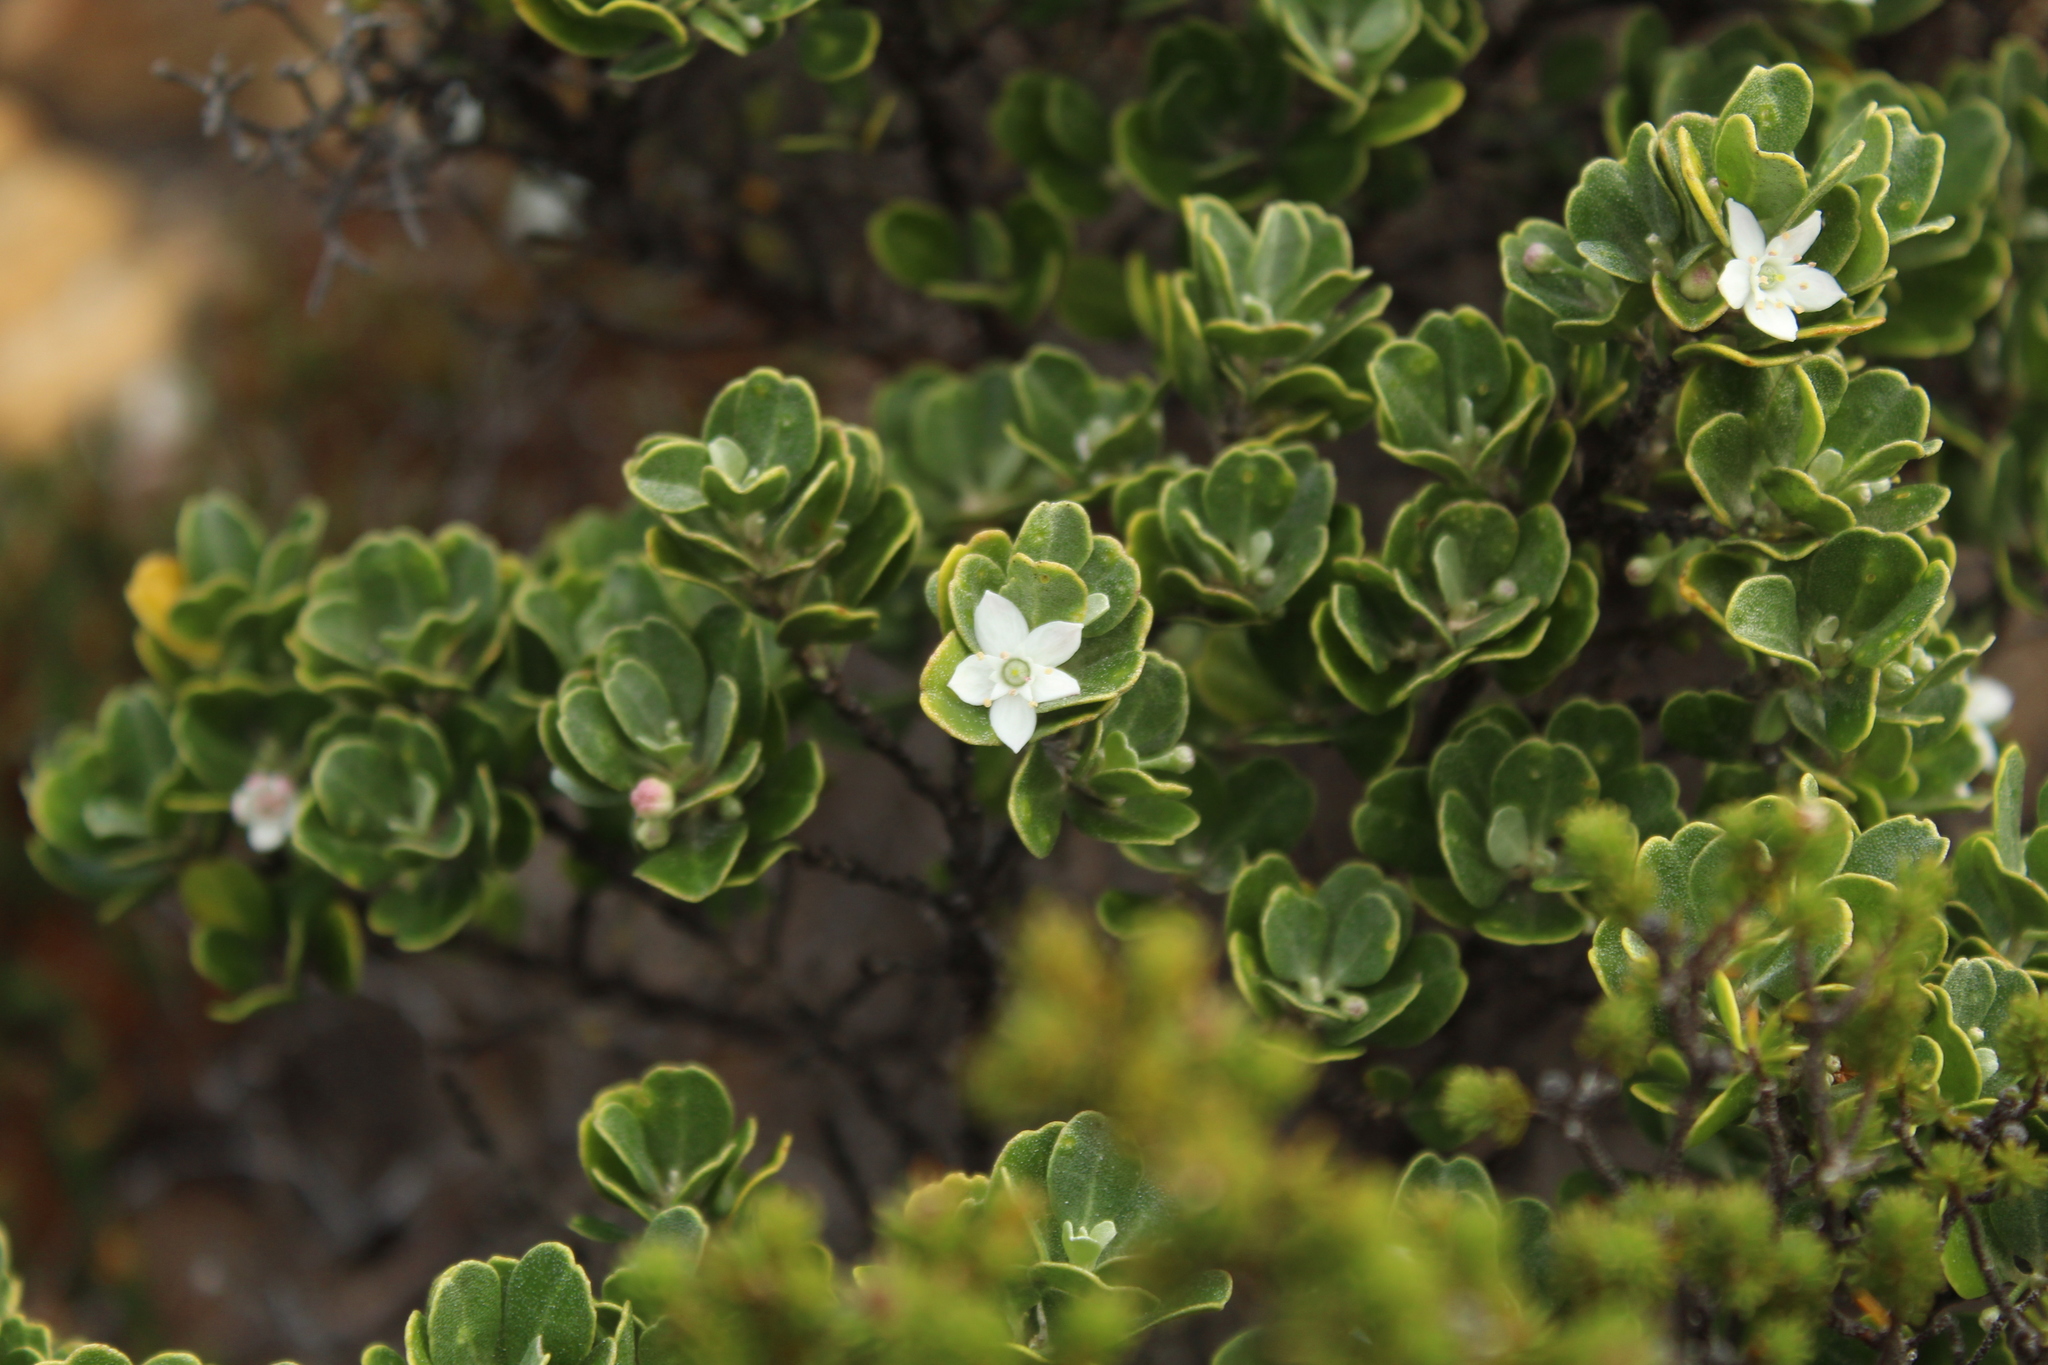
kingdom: Plantae
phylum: Tracheophyta
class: Magnoliopsida
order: Sapindales
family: Rutaceae
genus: Rhadinothamnus
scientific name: Rhadinothamnus rudis
